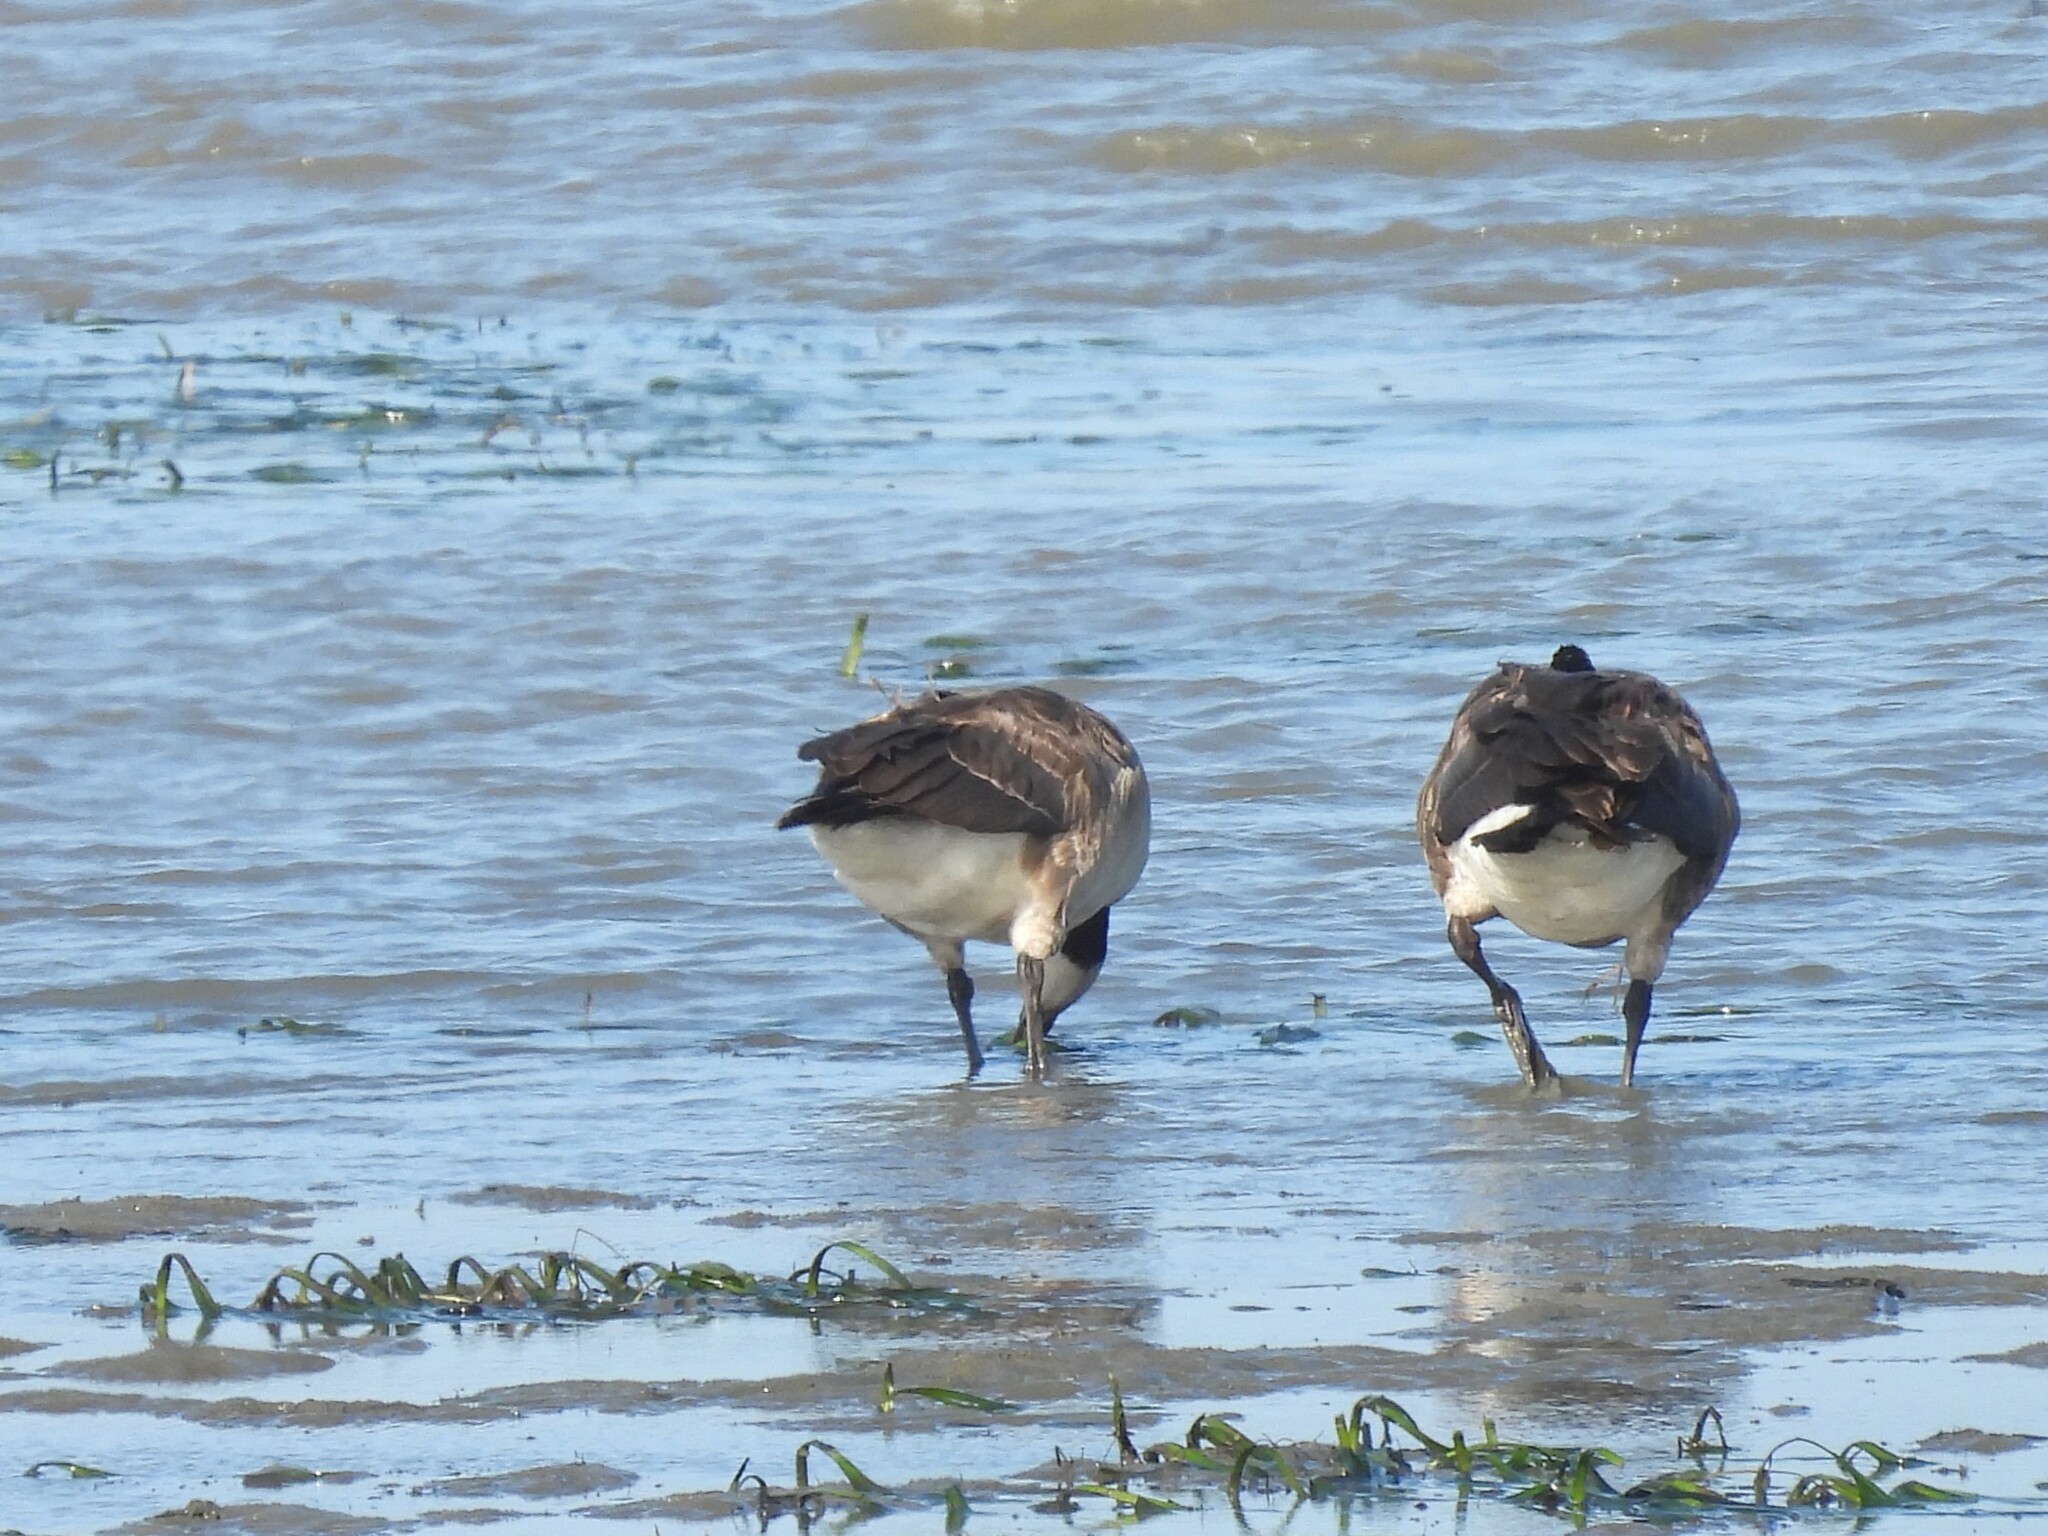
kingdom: Animalia
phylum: Chordata
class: Aves
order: Anseriformes
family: Anatidae
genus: Branta
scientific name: Branta canadensis
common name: Canada goose
